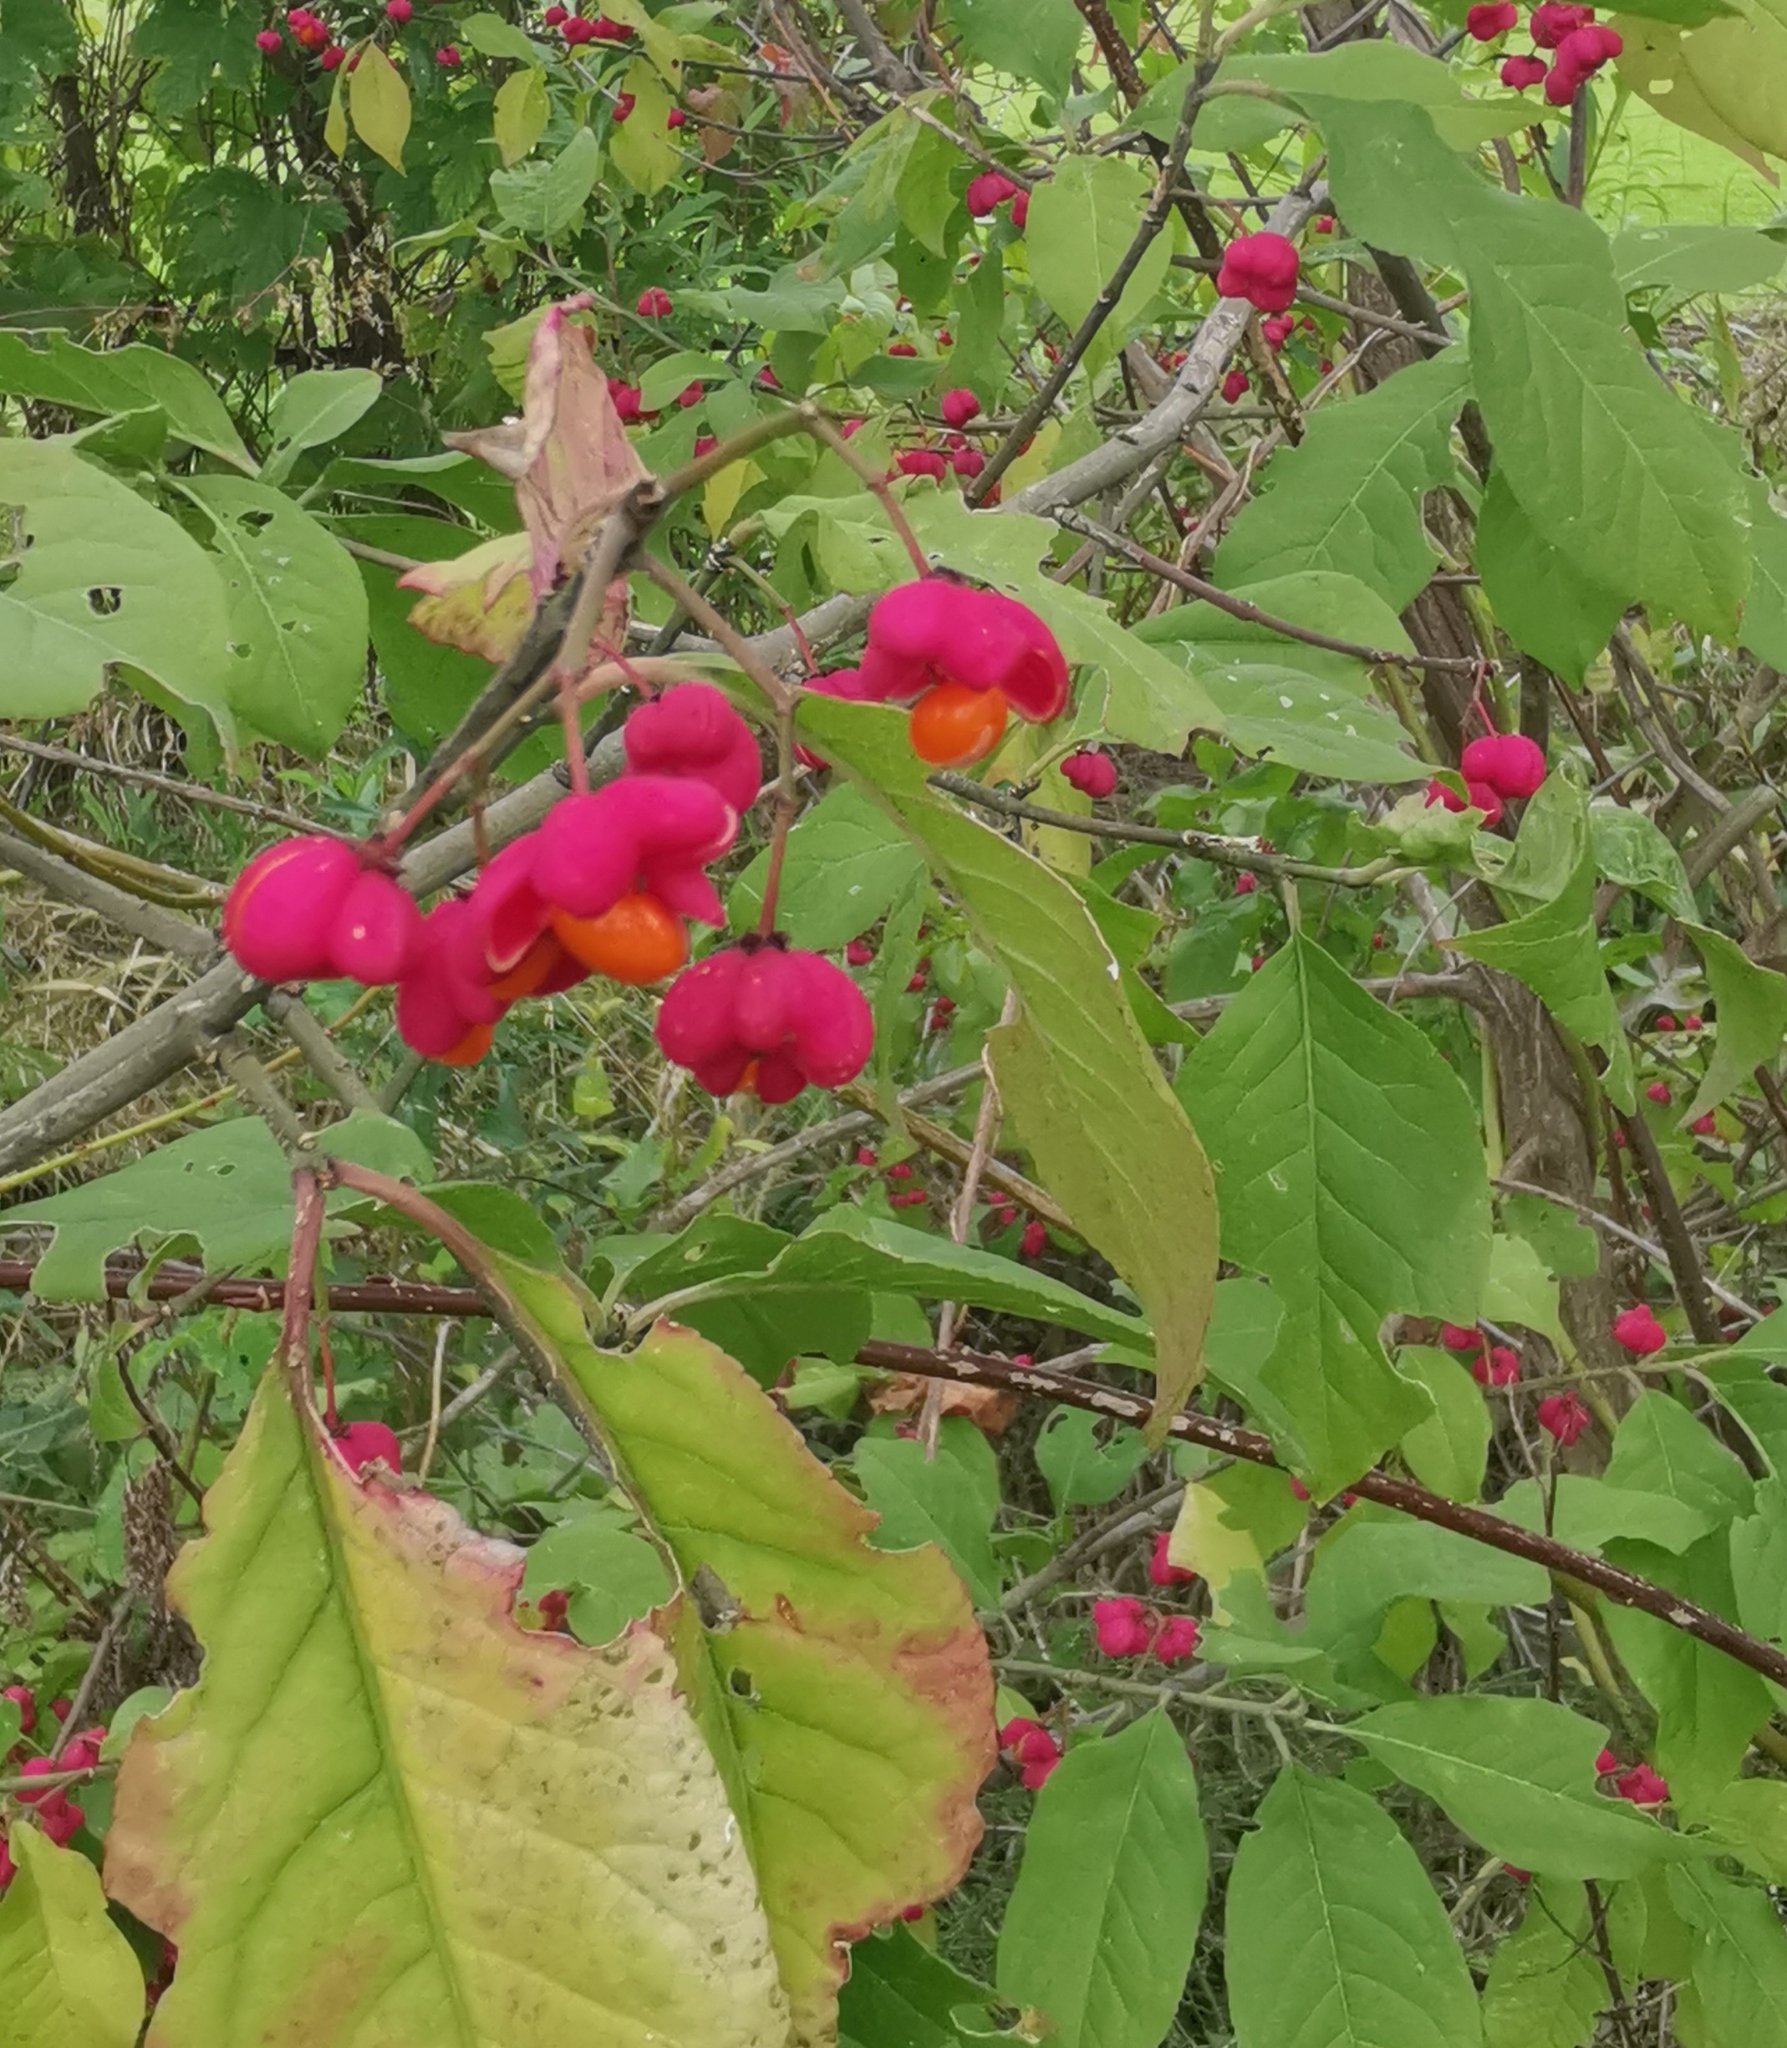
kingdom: Plantae
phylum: Tracheophyta
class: Magnoliopsida
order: Celastrales
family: Celastraceae
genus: Euonymus
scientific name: Euonymus europaeus
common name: Spindle
